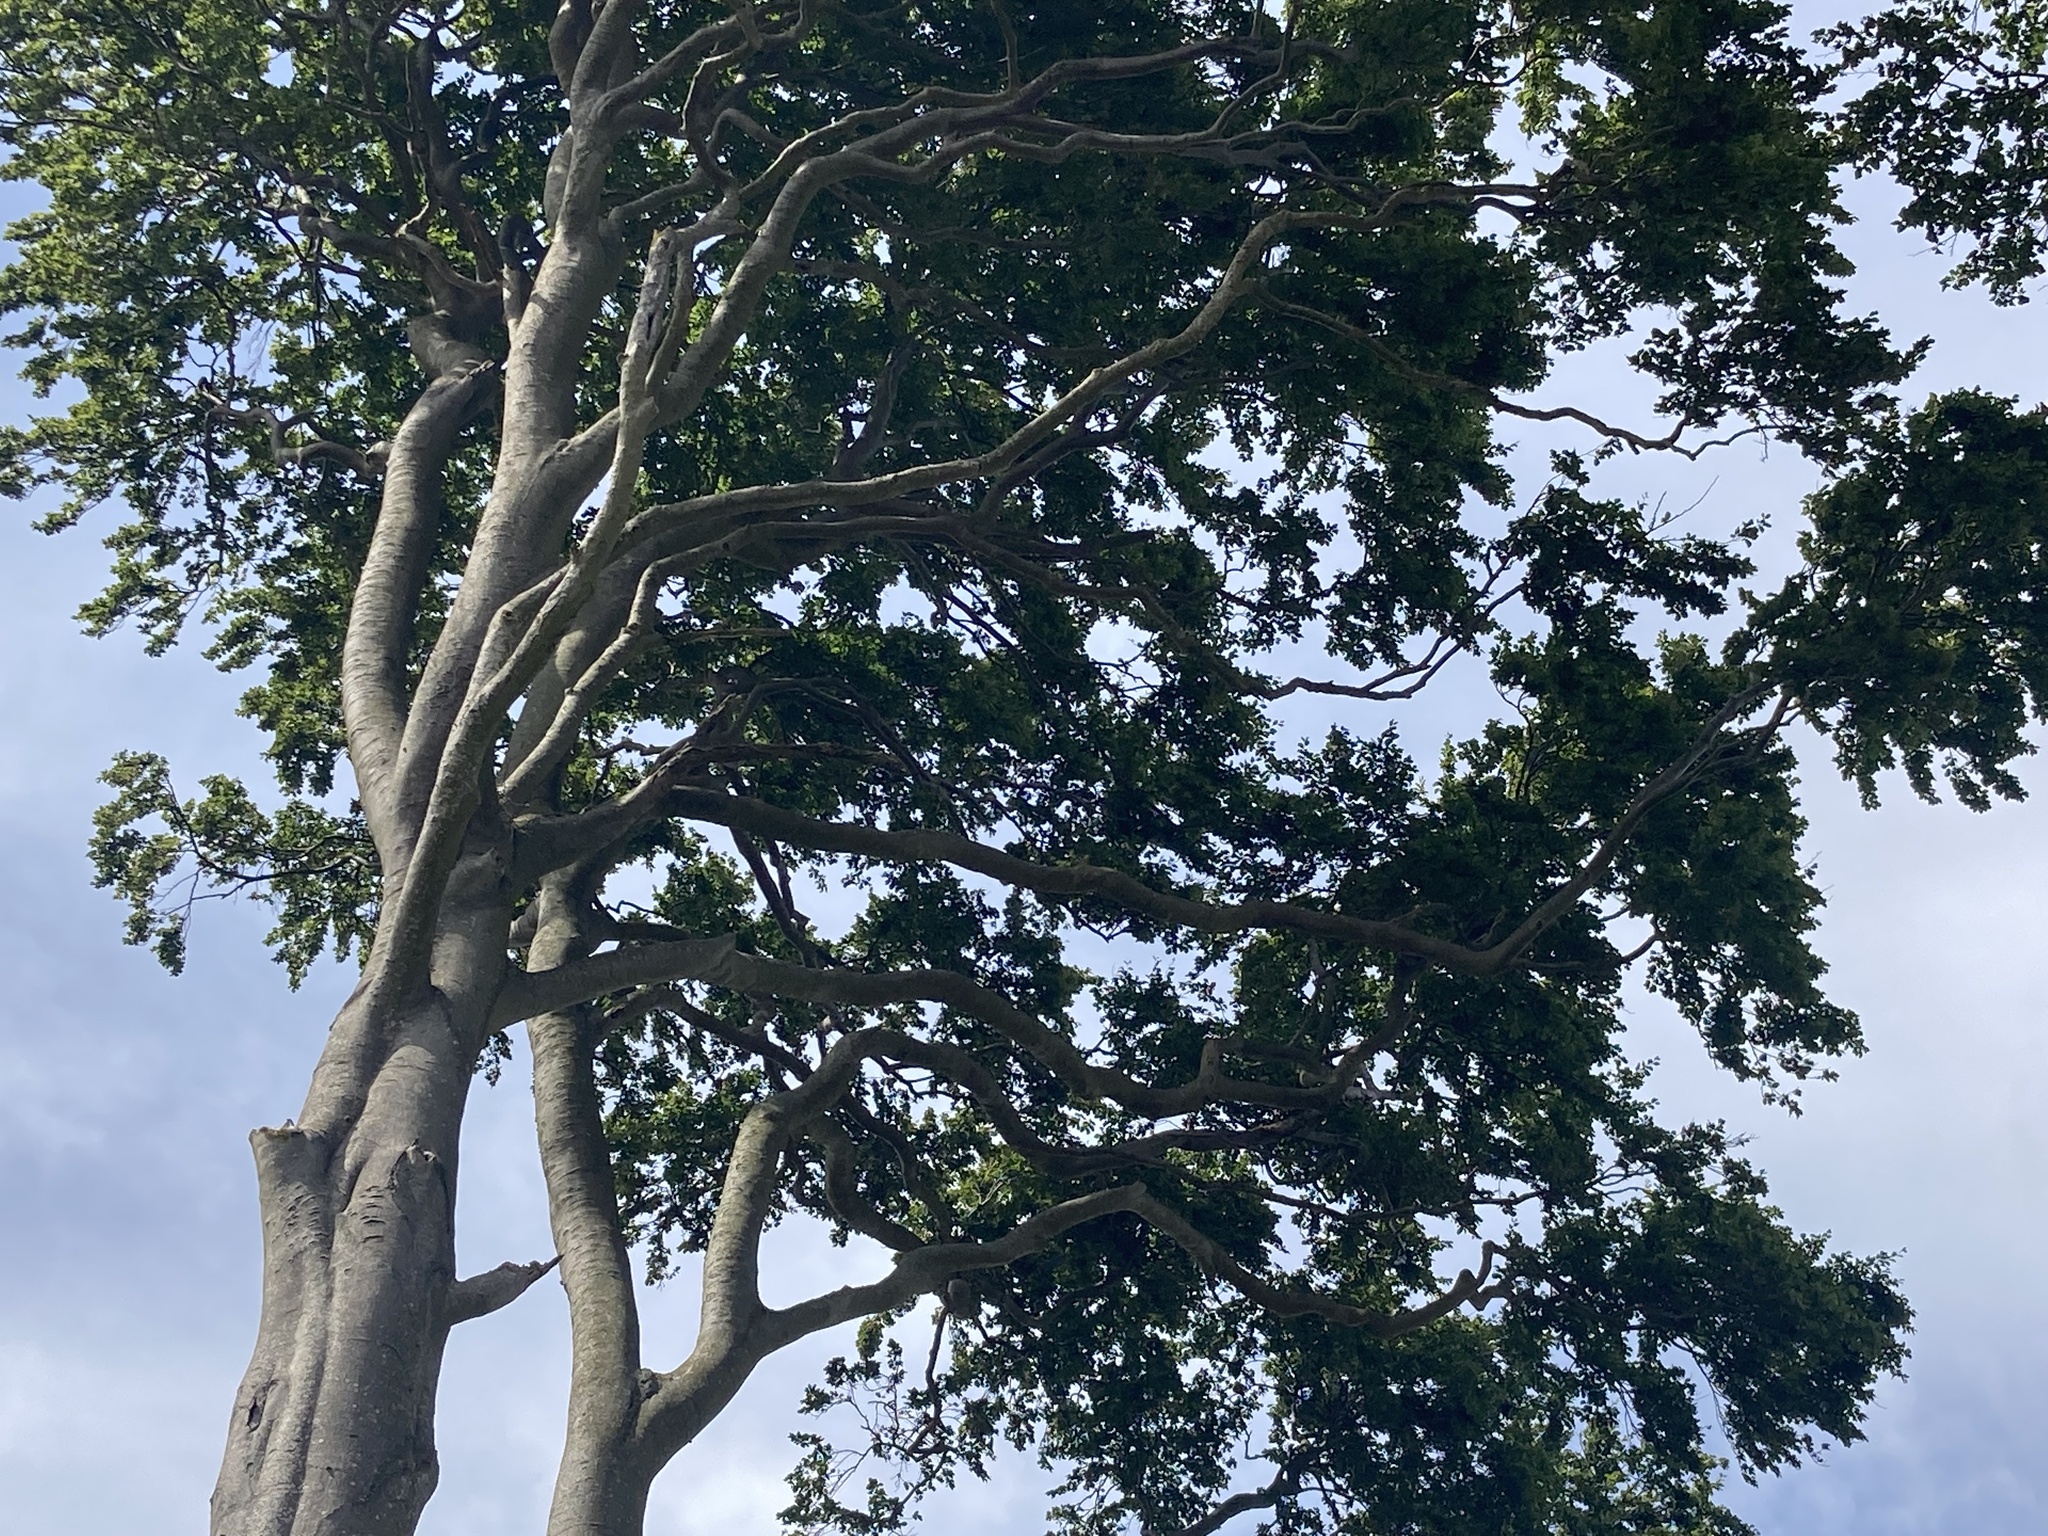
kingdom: Plantae
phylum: Tracheophyta
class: Magnoliopsida
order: Fagales
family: Fagaceae
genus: Fagus
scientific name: Fagus sylvatica
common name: Beech
